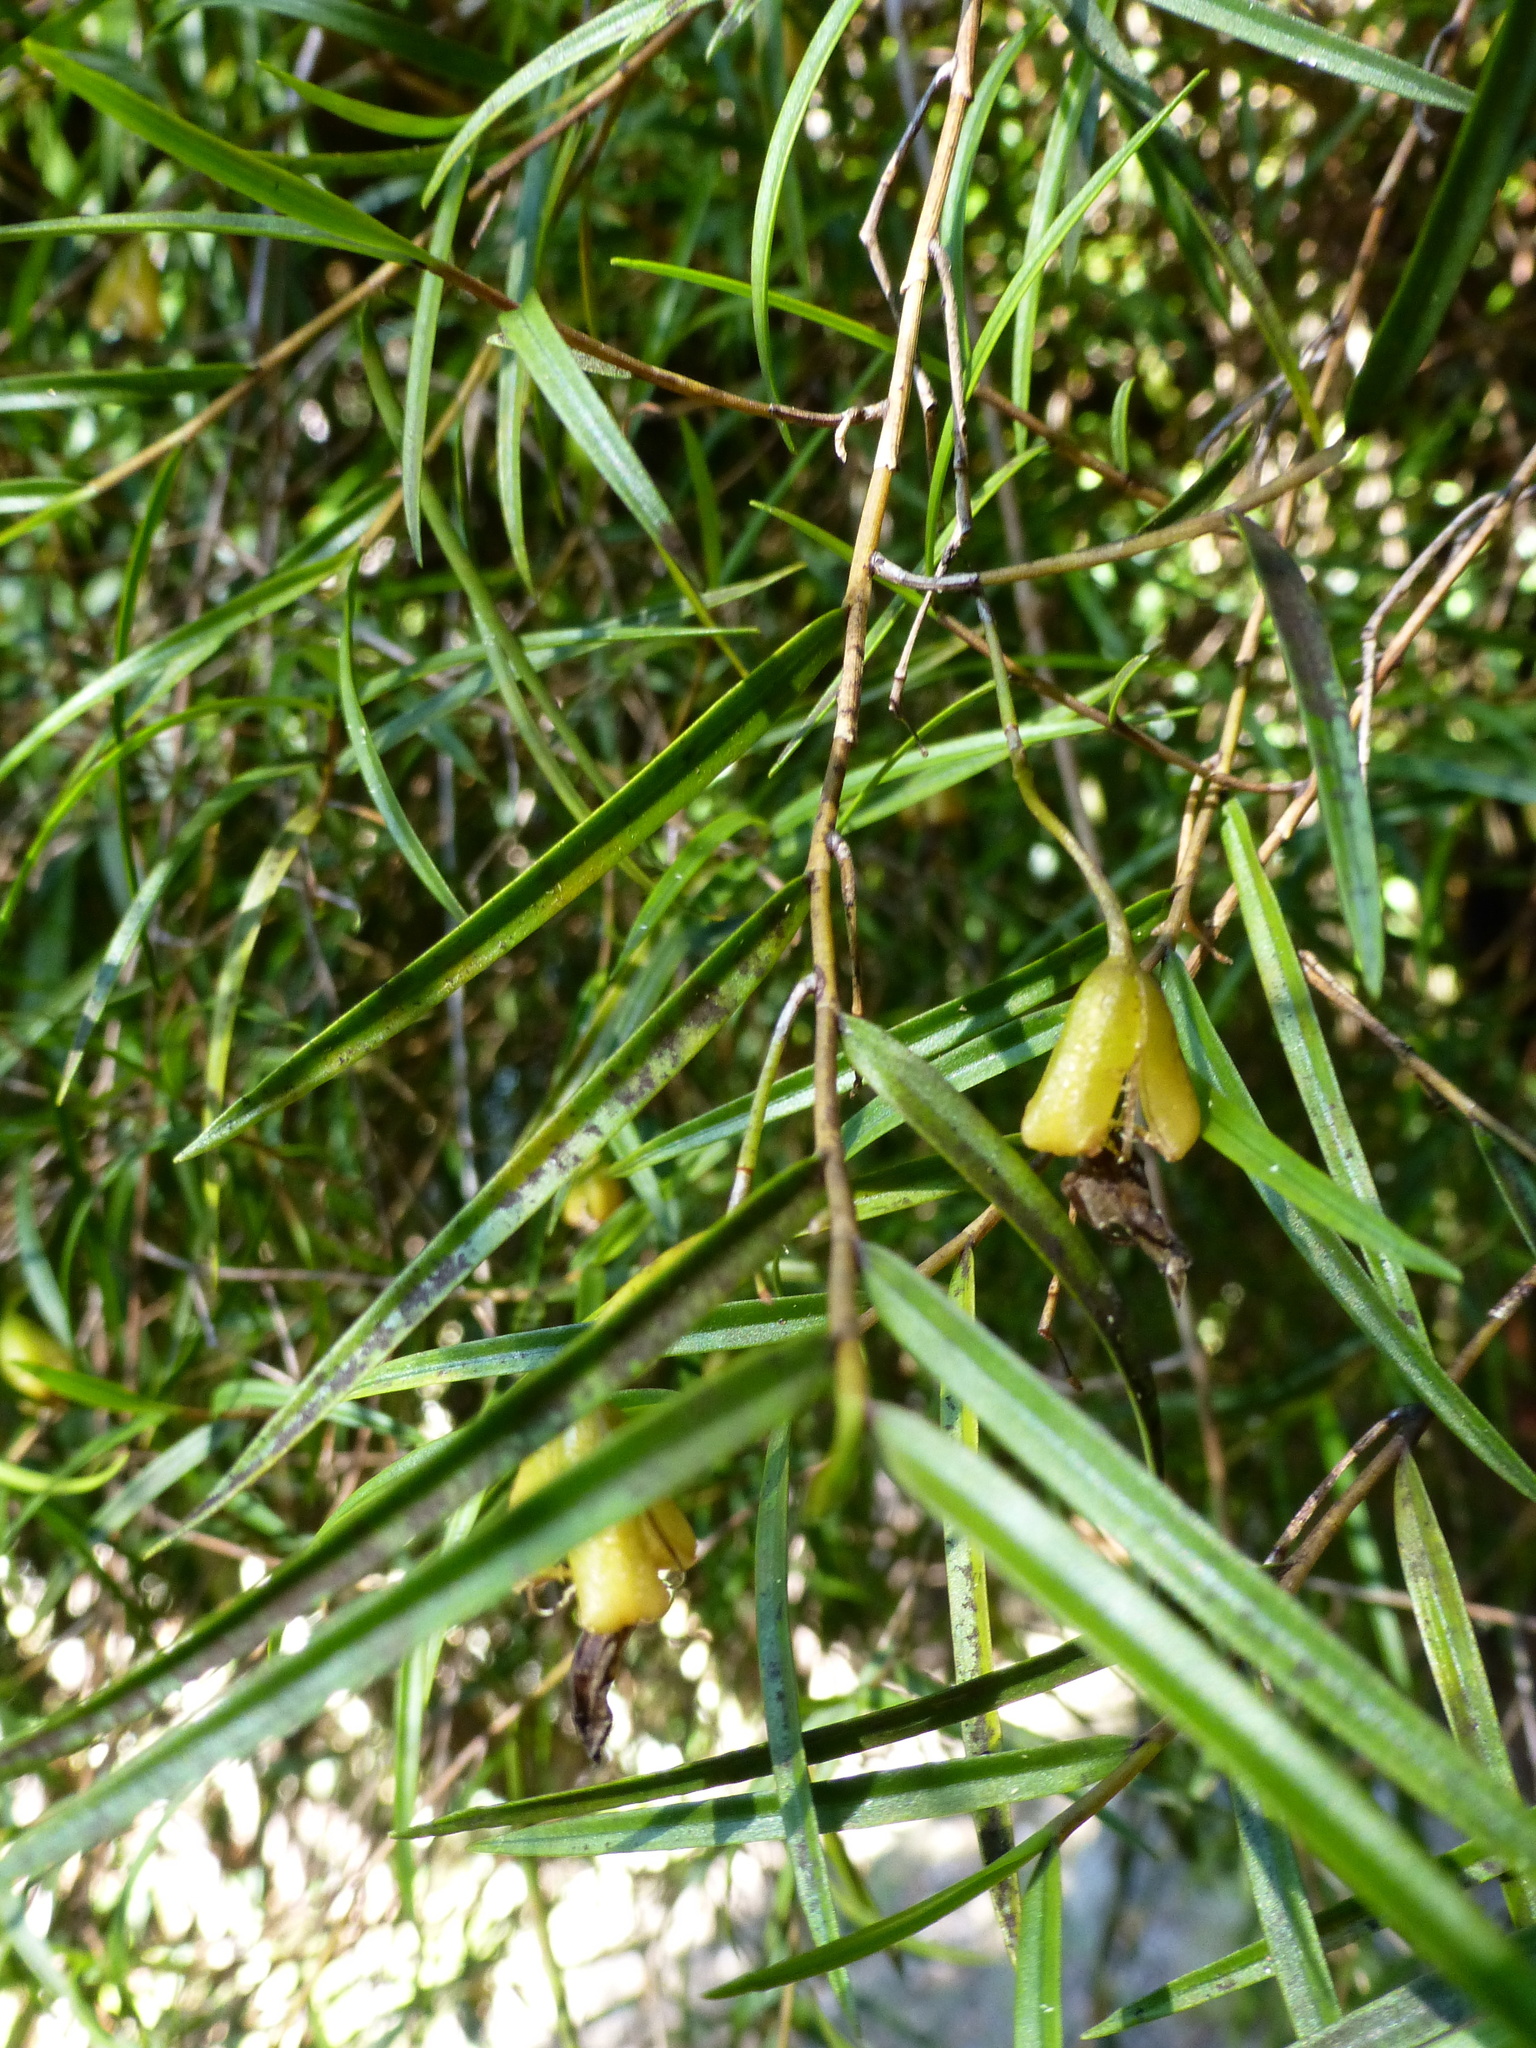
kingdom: Plantae
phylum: Tracheophyta
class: Liliopsida
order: Asparagales
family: Orchidaceae
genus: Dendrobium
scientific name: Dendrobium cunninghamii
